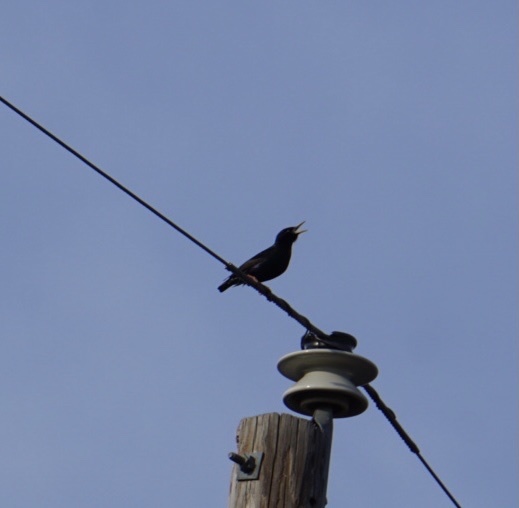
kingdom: Animalia
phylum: Chordata
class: Aves
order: Passeriformes
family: Sturnidae
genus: Sturnus
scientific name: Sturnus vulgaris
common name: Common starling
